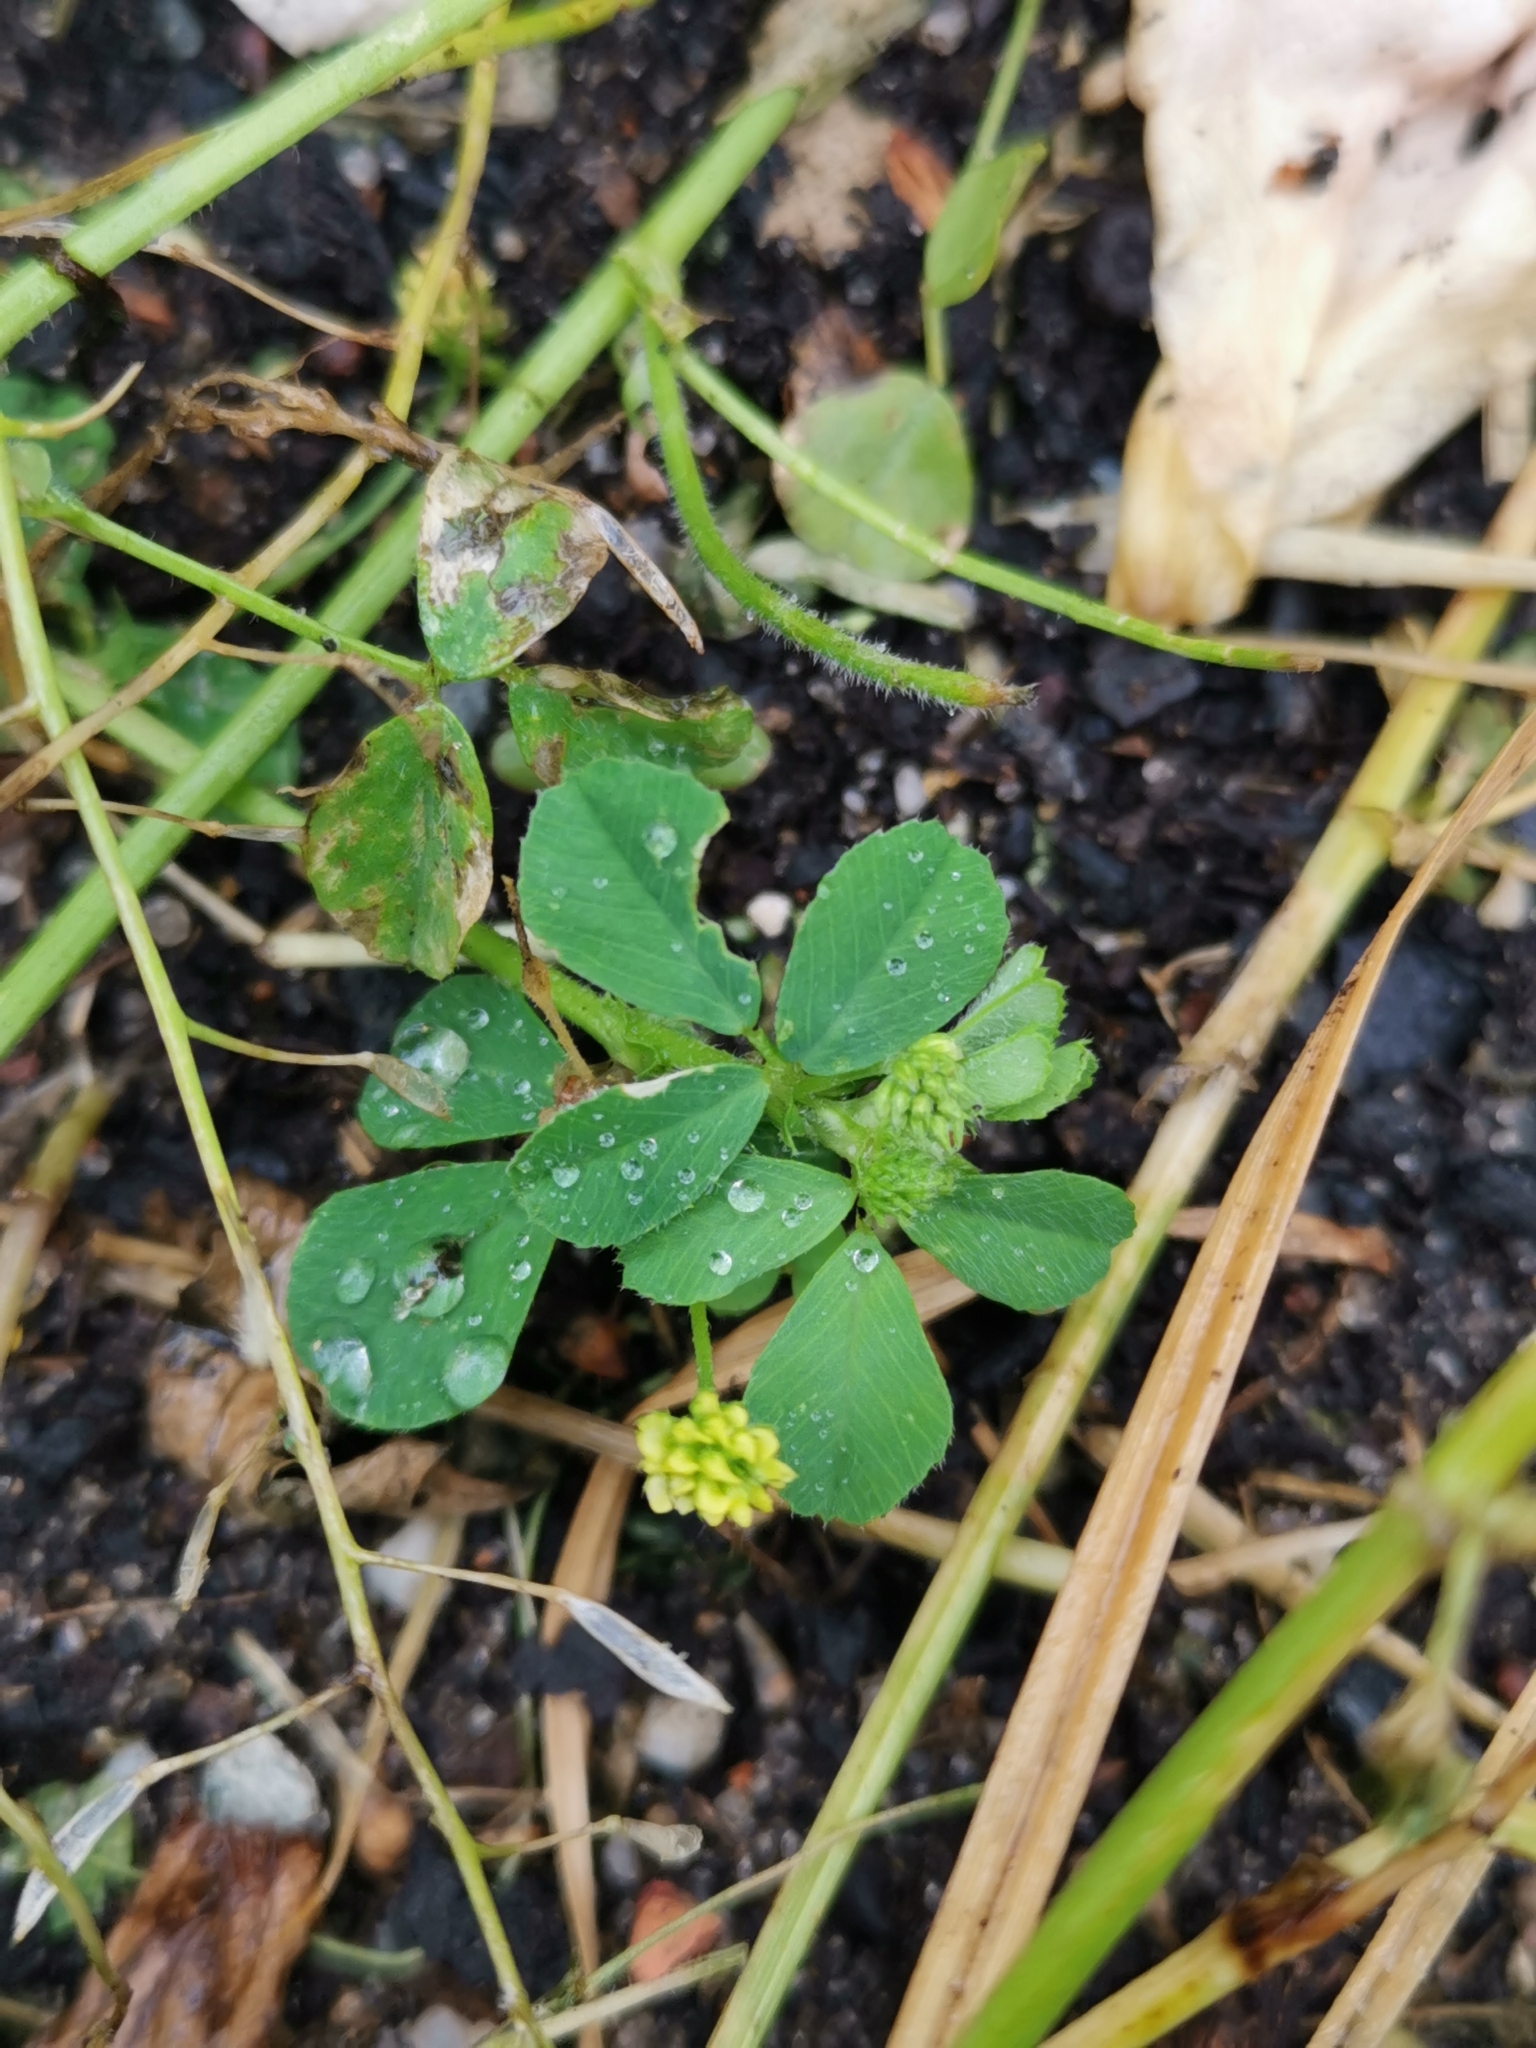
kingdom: Plantae
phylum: Tracheophyta
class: Magnoliopsida
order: Fabales
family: Fabaceae
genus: Medicago
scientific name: Medicago lupulina
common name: Black medick
